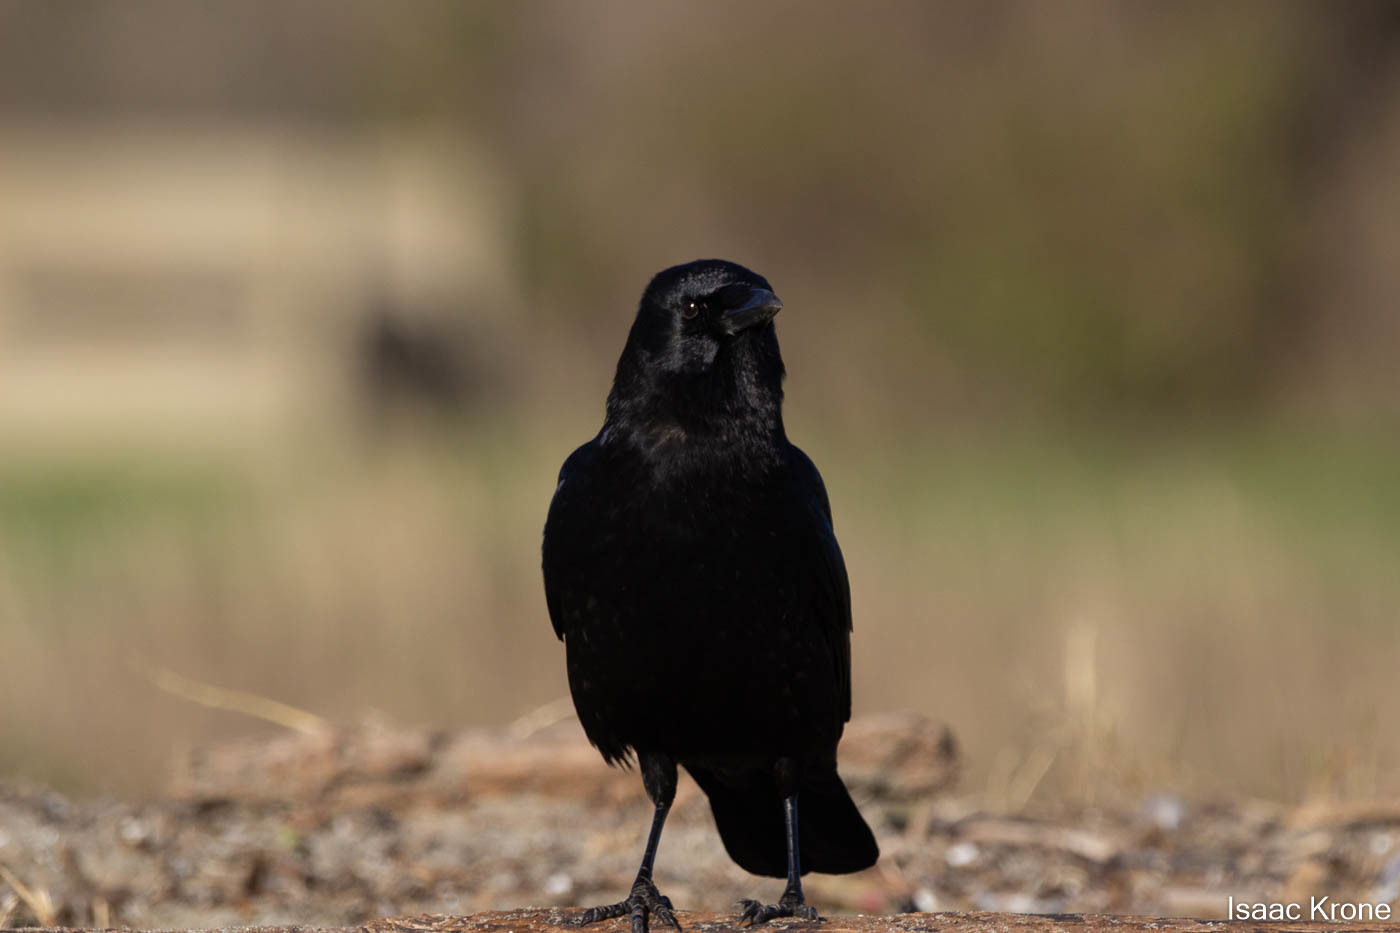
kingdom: Animalia
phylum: Chordata
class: Aves
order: Passeriformes
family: Corvidae
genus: Corvus
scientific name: Corvus brachyrhynchos
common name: American crow
